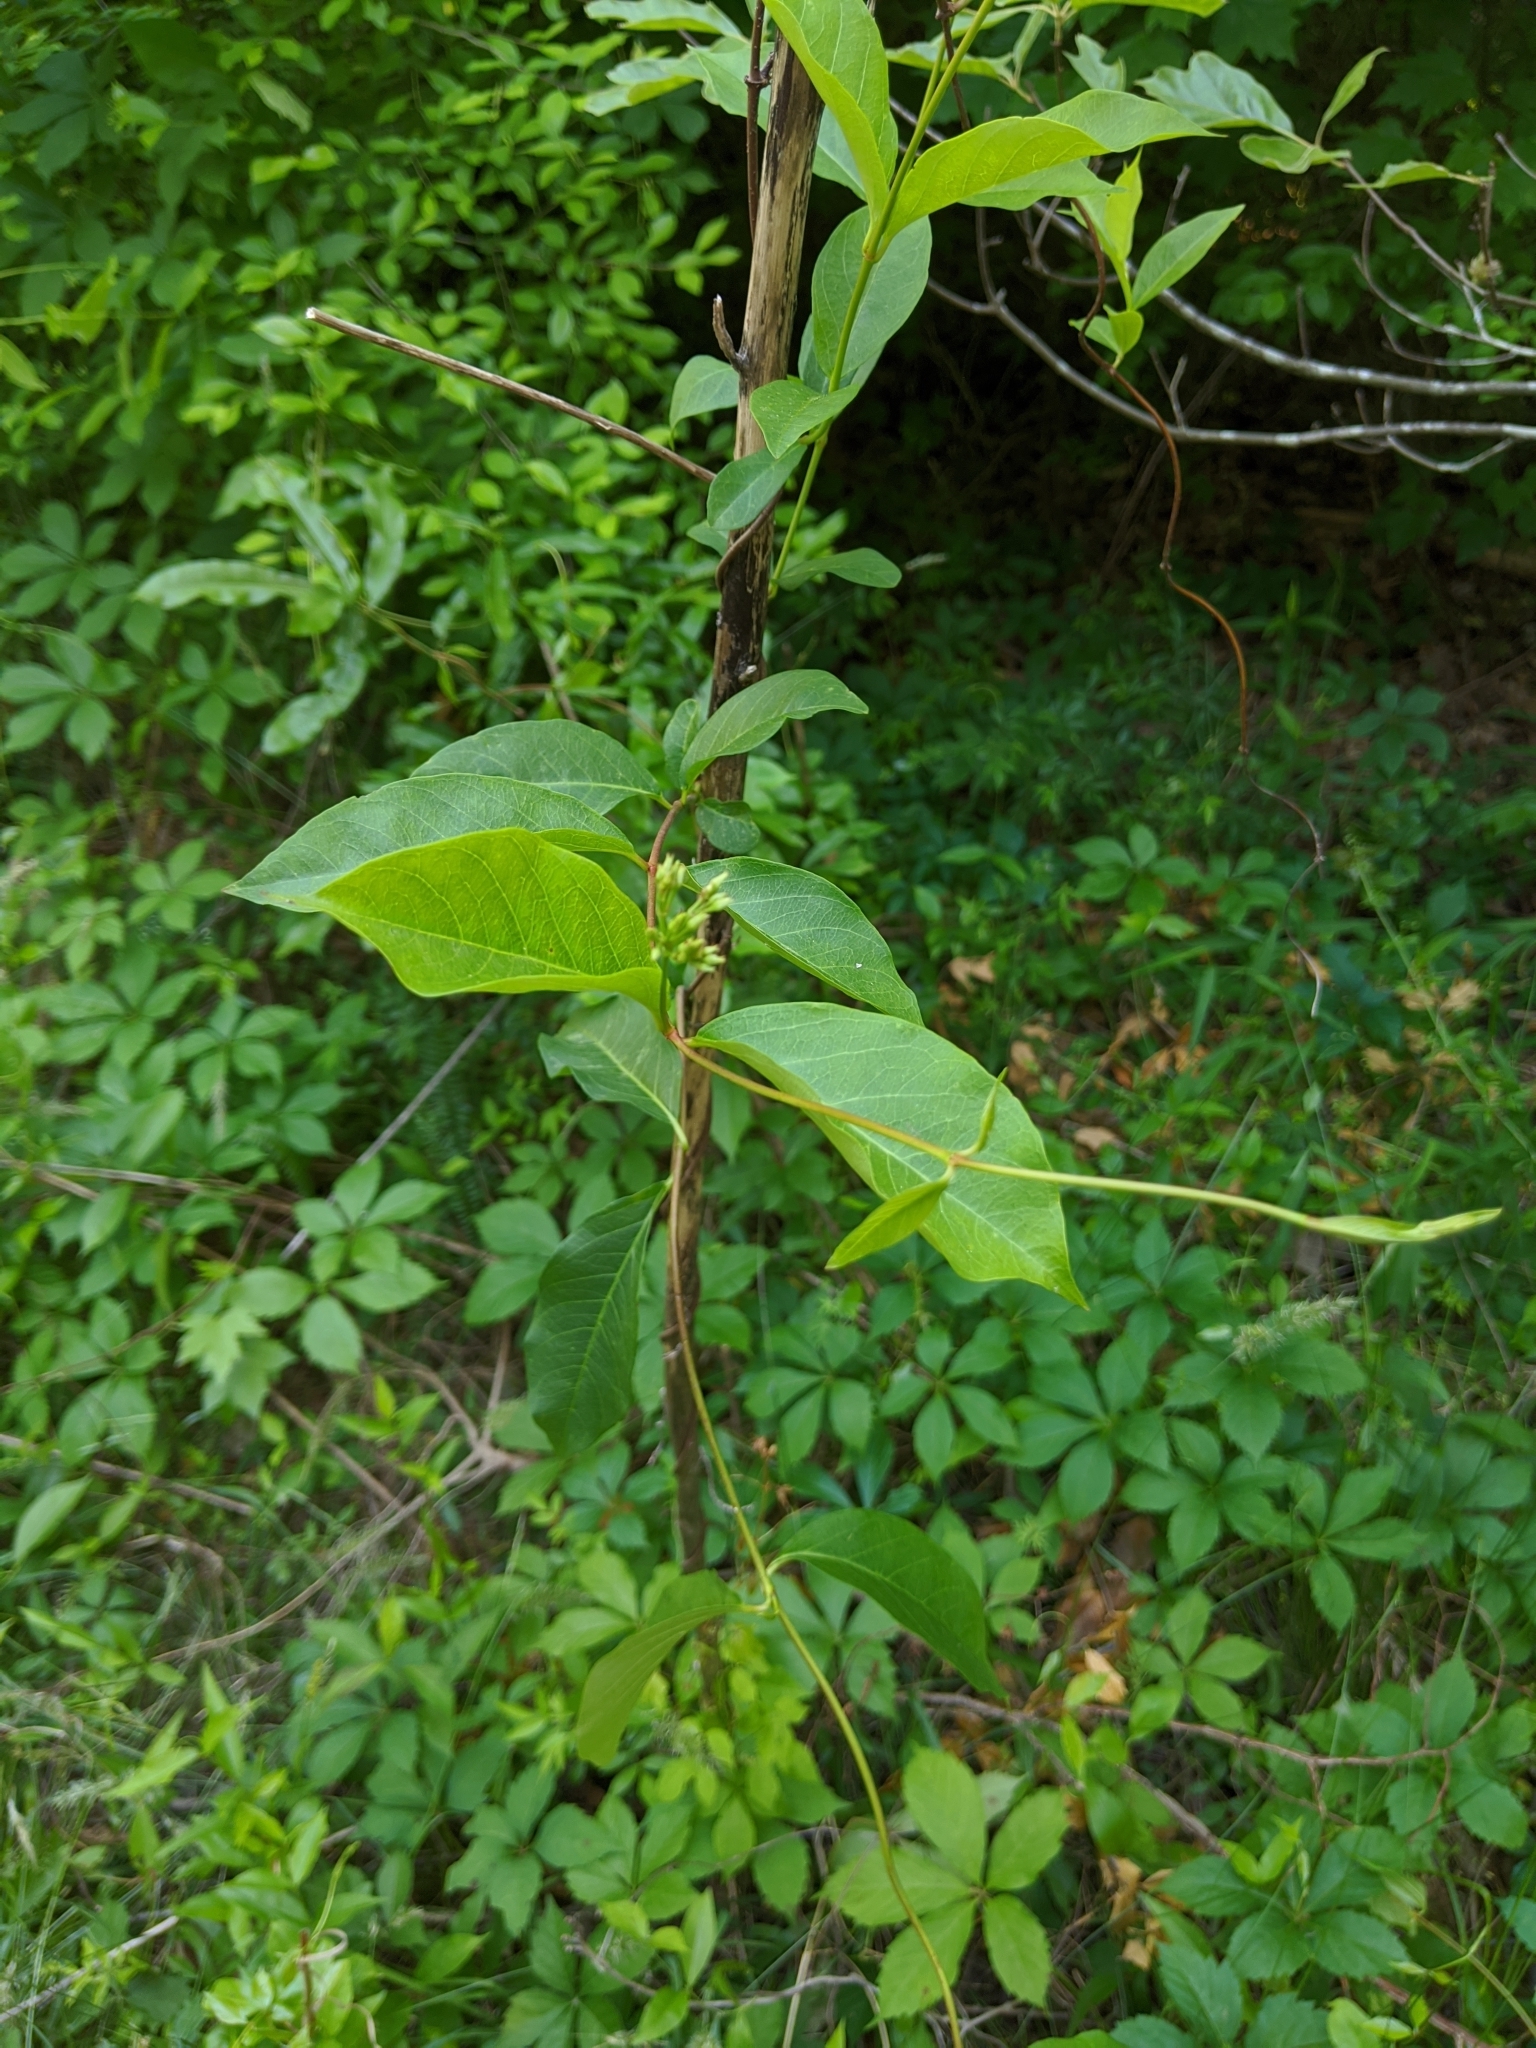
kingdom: Plantae
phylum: Tracheophyta
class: Magnoliopsida
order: Gentianales
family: Apocynaceae
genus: Thyrsanthella
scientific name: Thyrsanthella difformis
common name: Climbing dogbane
